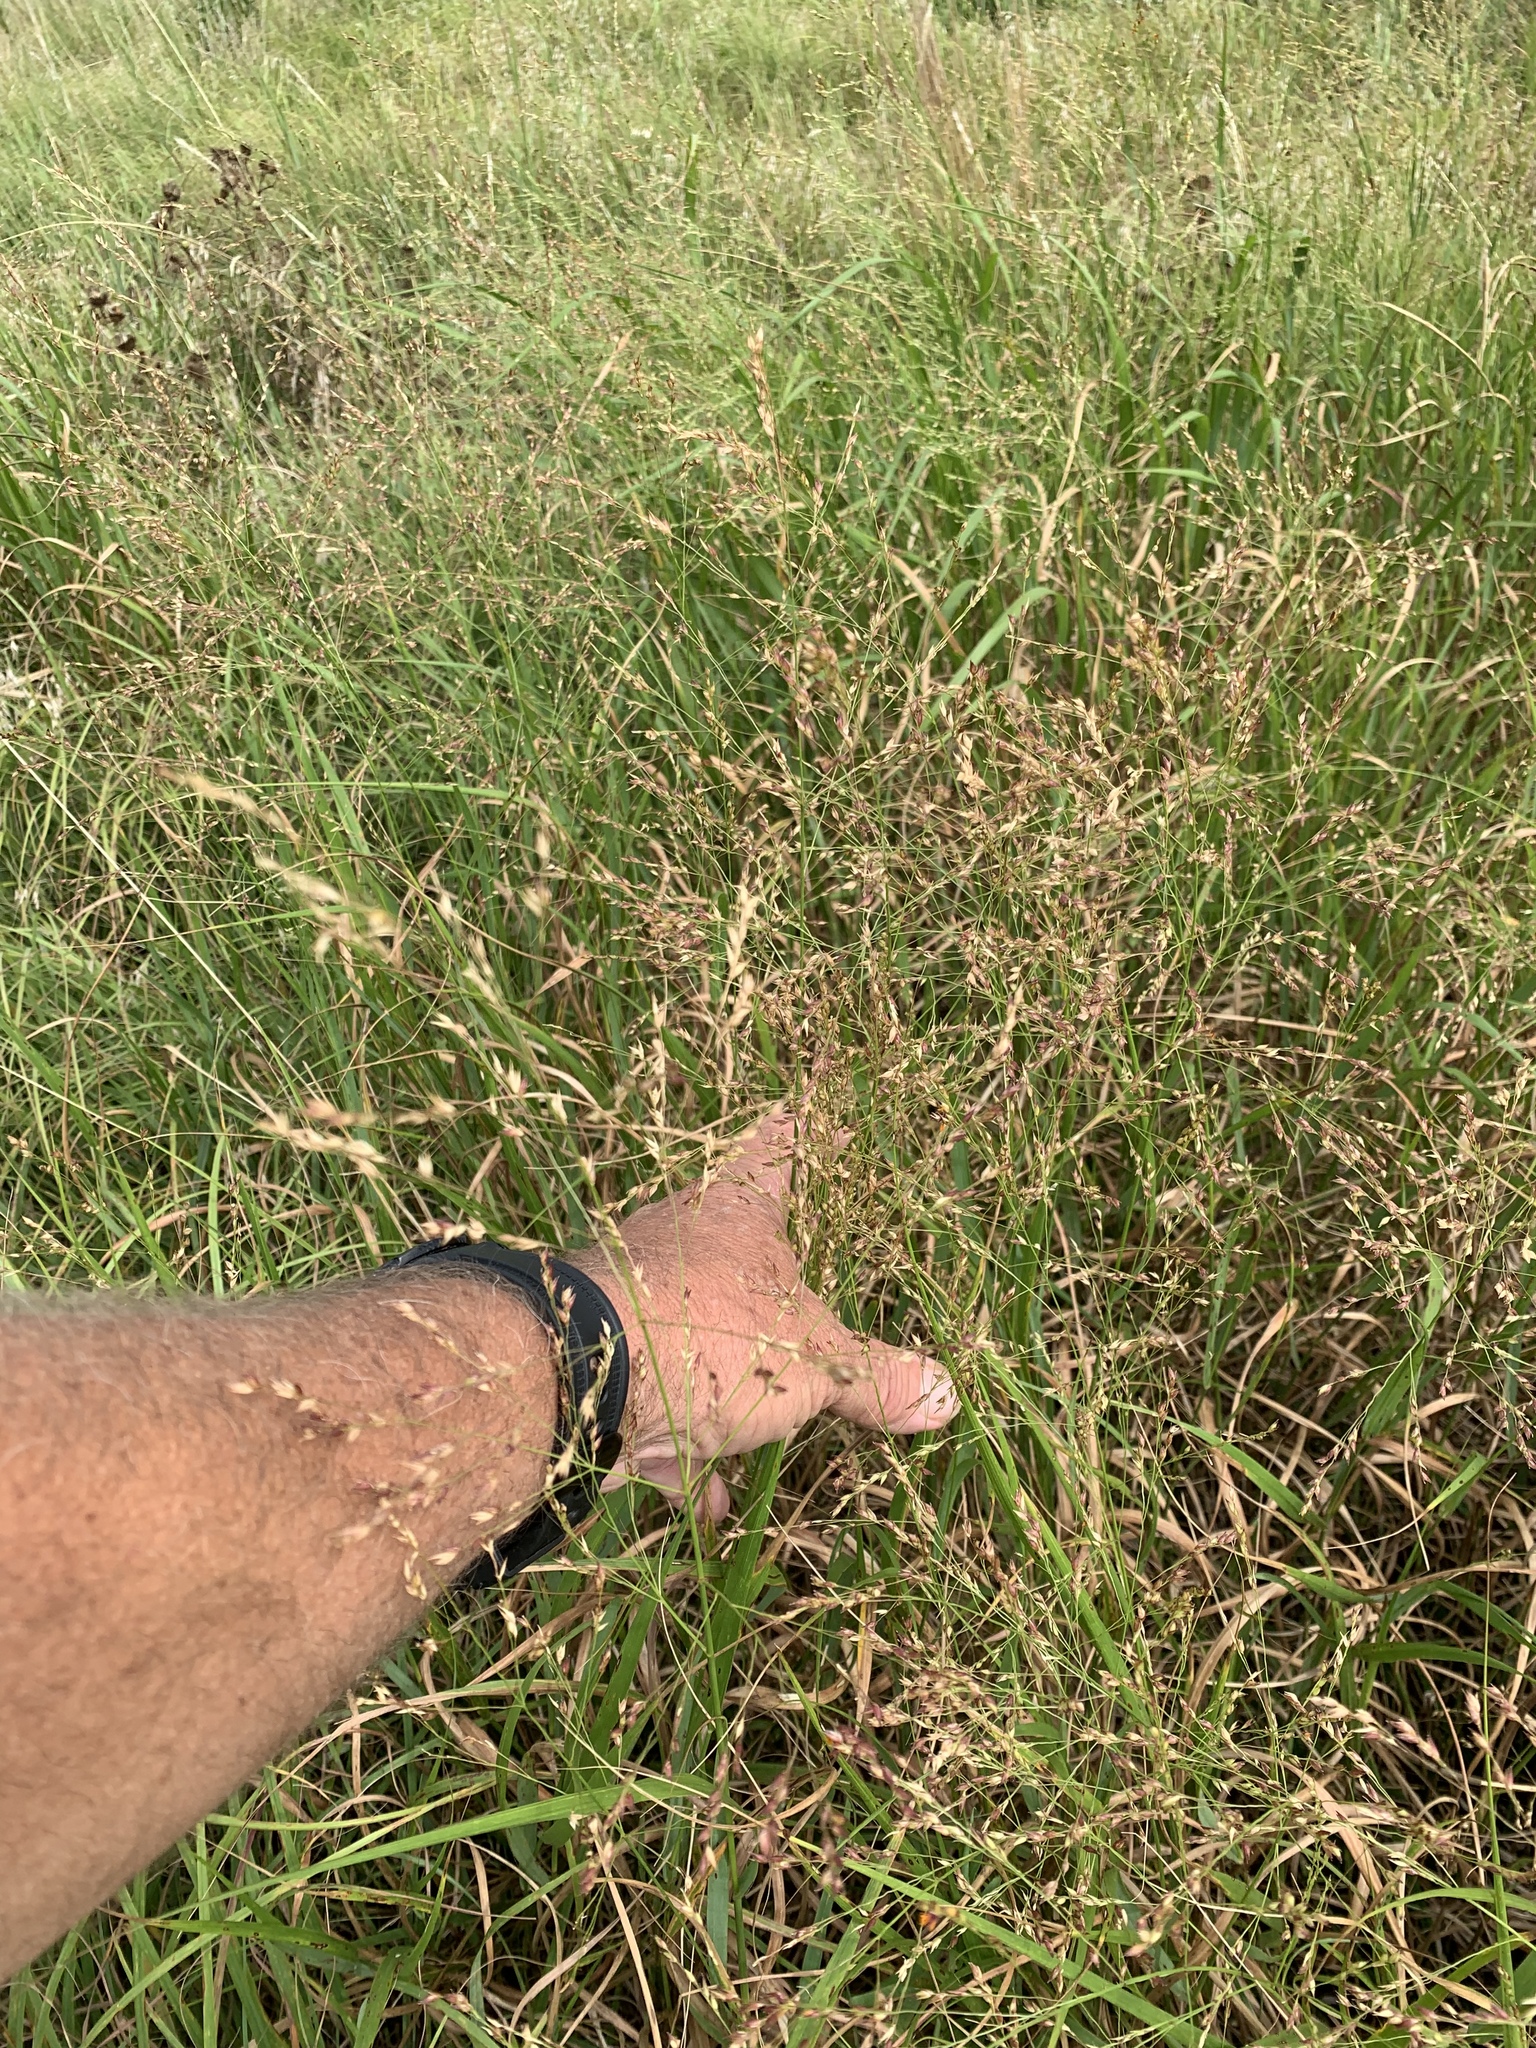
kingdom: Plantae
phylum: Tracheophyta
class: Liliopsida
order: Poales
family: Poaceae
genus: Panicum
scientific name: Panicum virgatum
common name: Switchgrass
